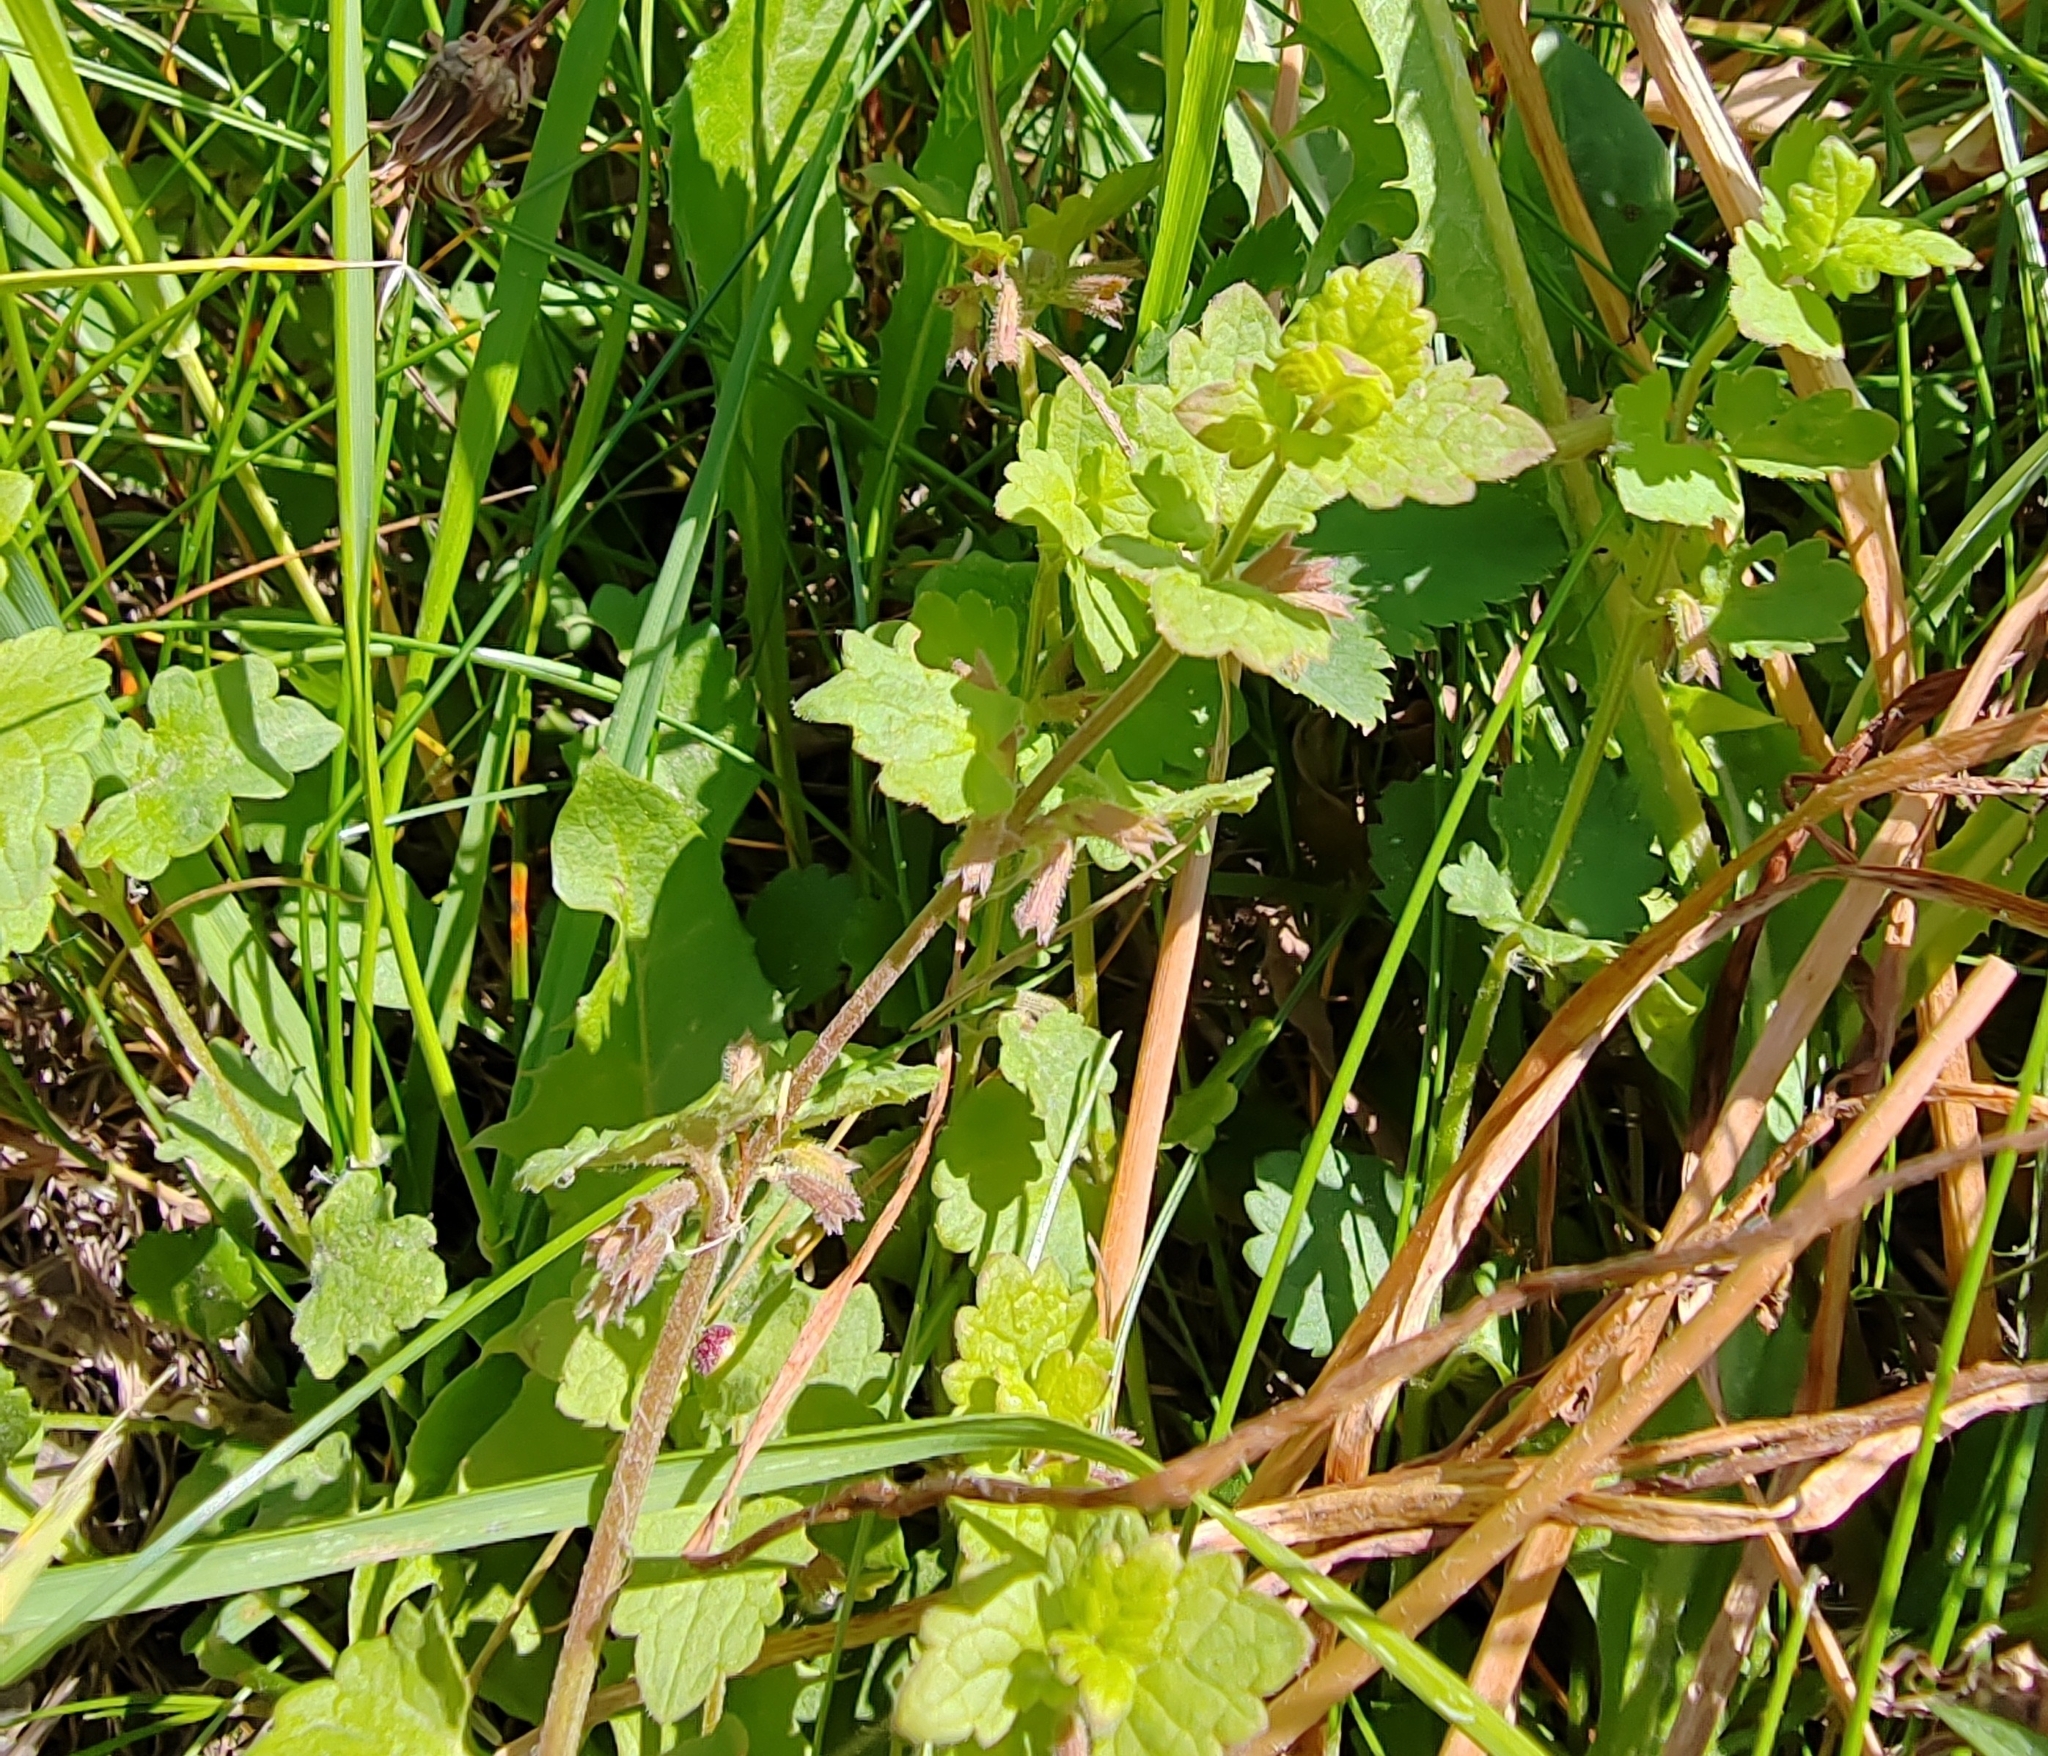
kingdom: Plantae
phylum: Tracheophyta
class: Magnoliopsida
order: Lamiales
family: Lamiaceae
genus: Glechoma
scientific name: Glechoma hederacea
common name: Ground ivy
